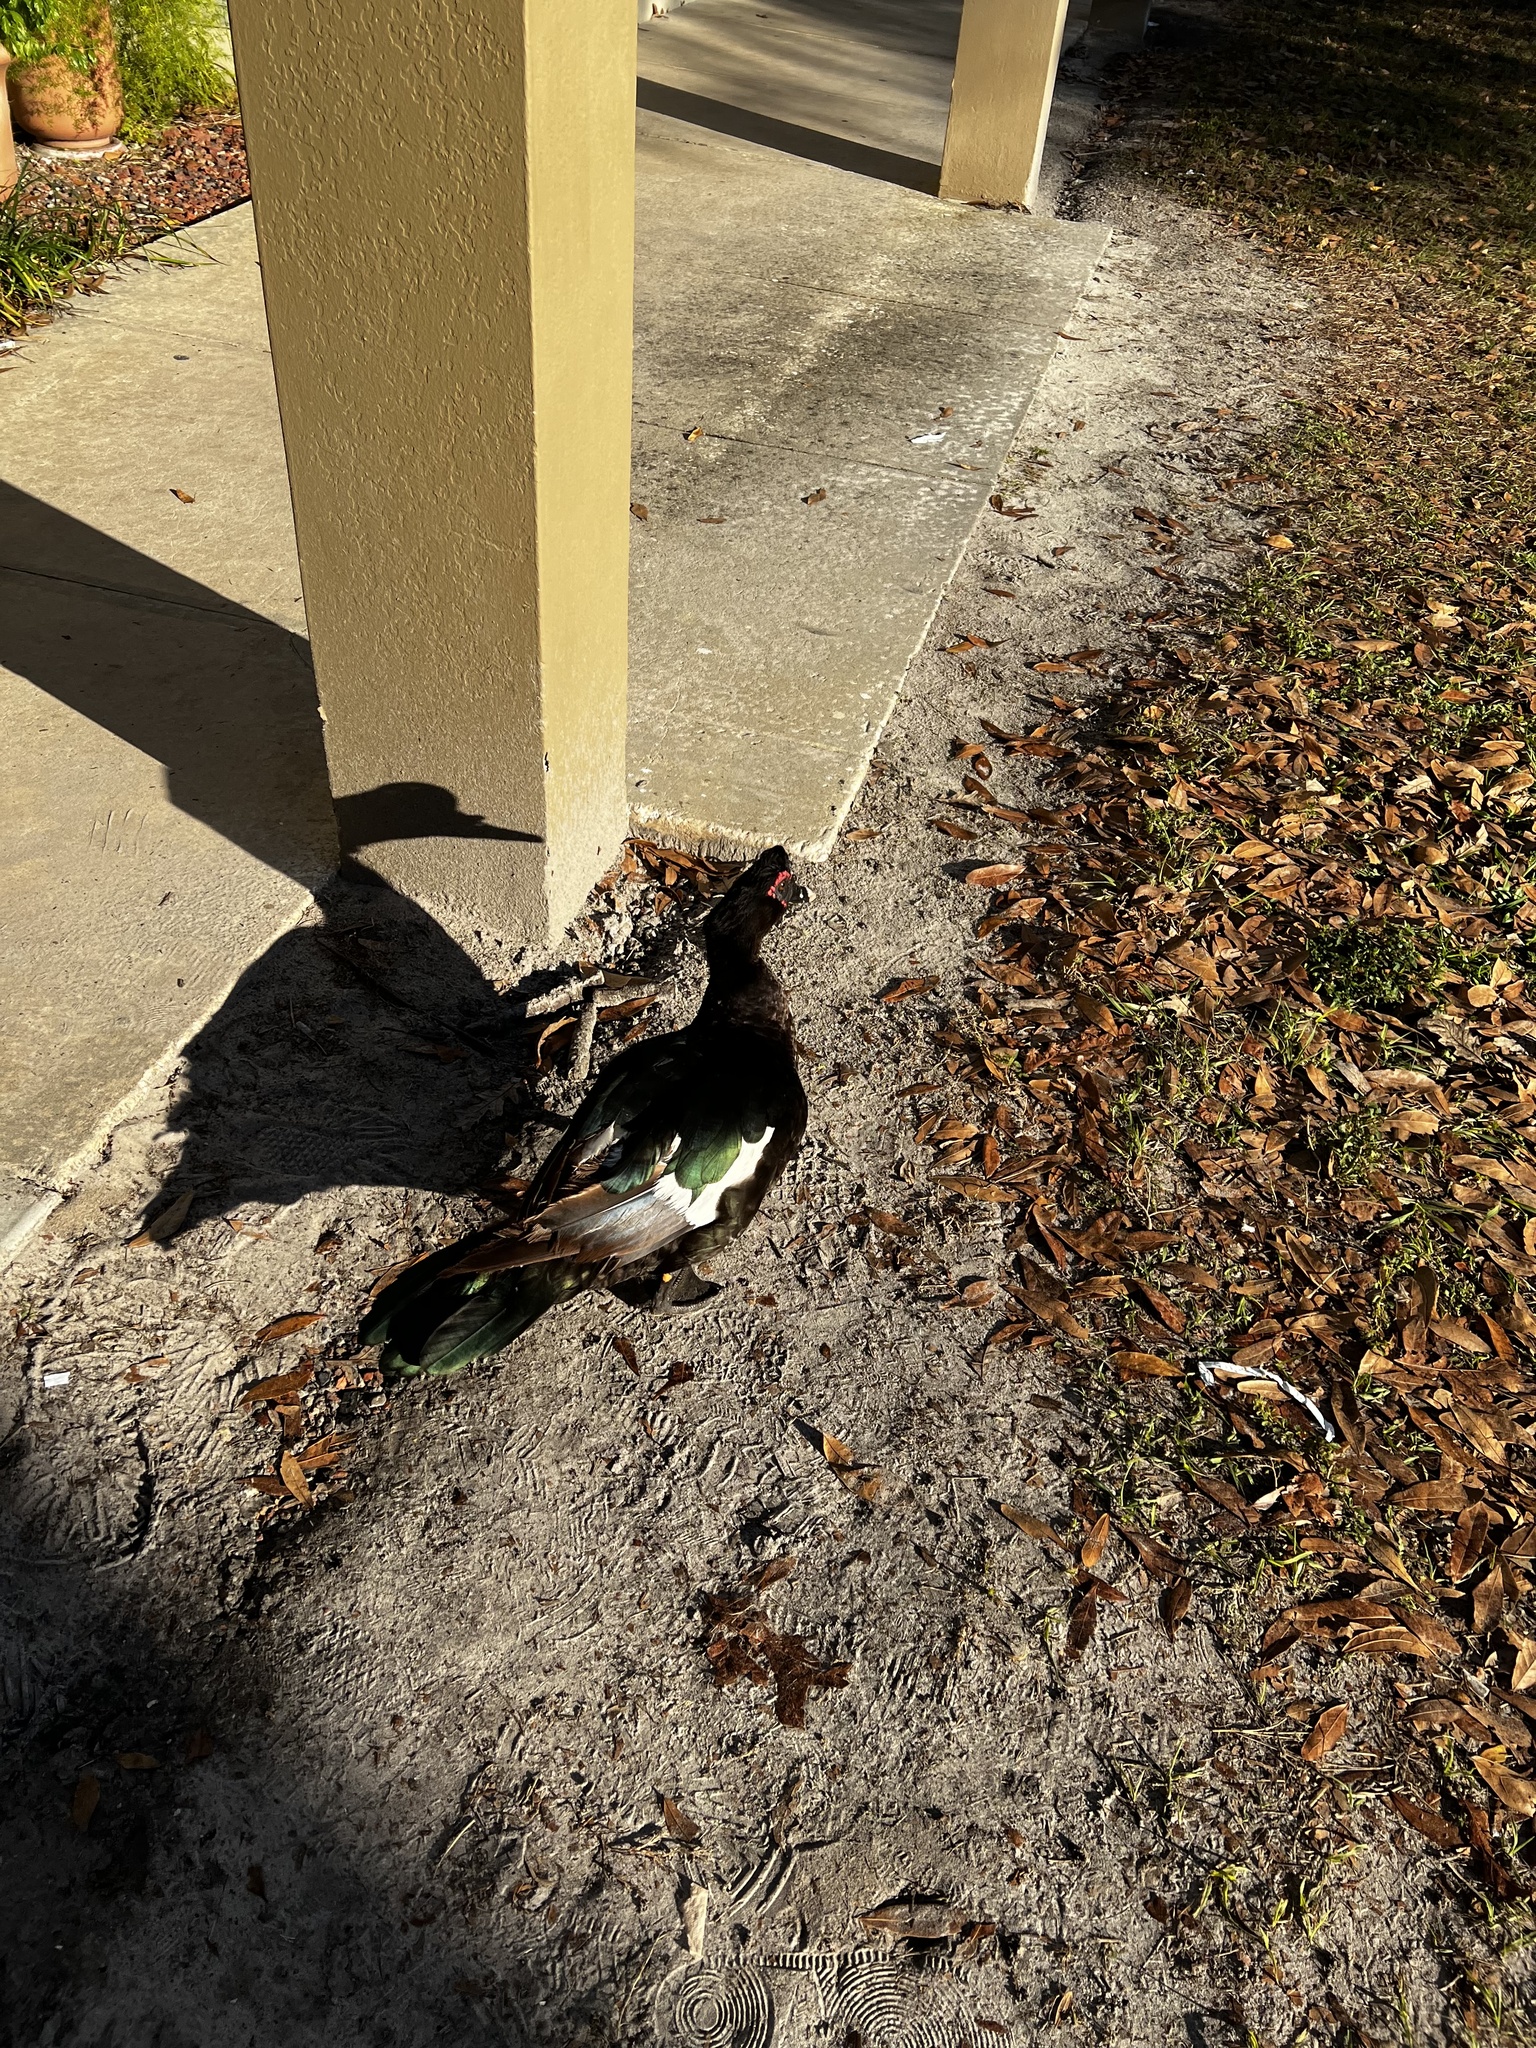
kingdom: Animalia
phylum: Chordata
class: Aves
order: Anseriformes
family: Anatidae
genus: Cairina
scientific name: Cairina moschata
